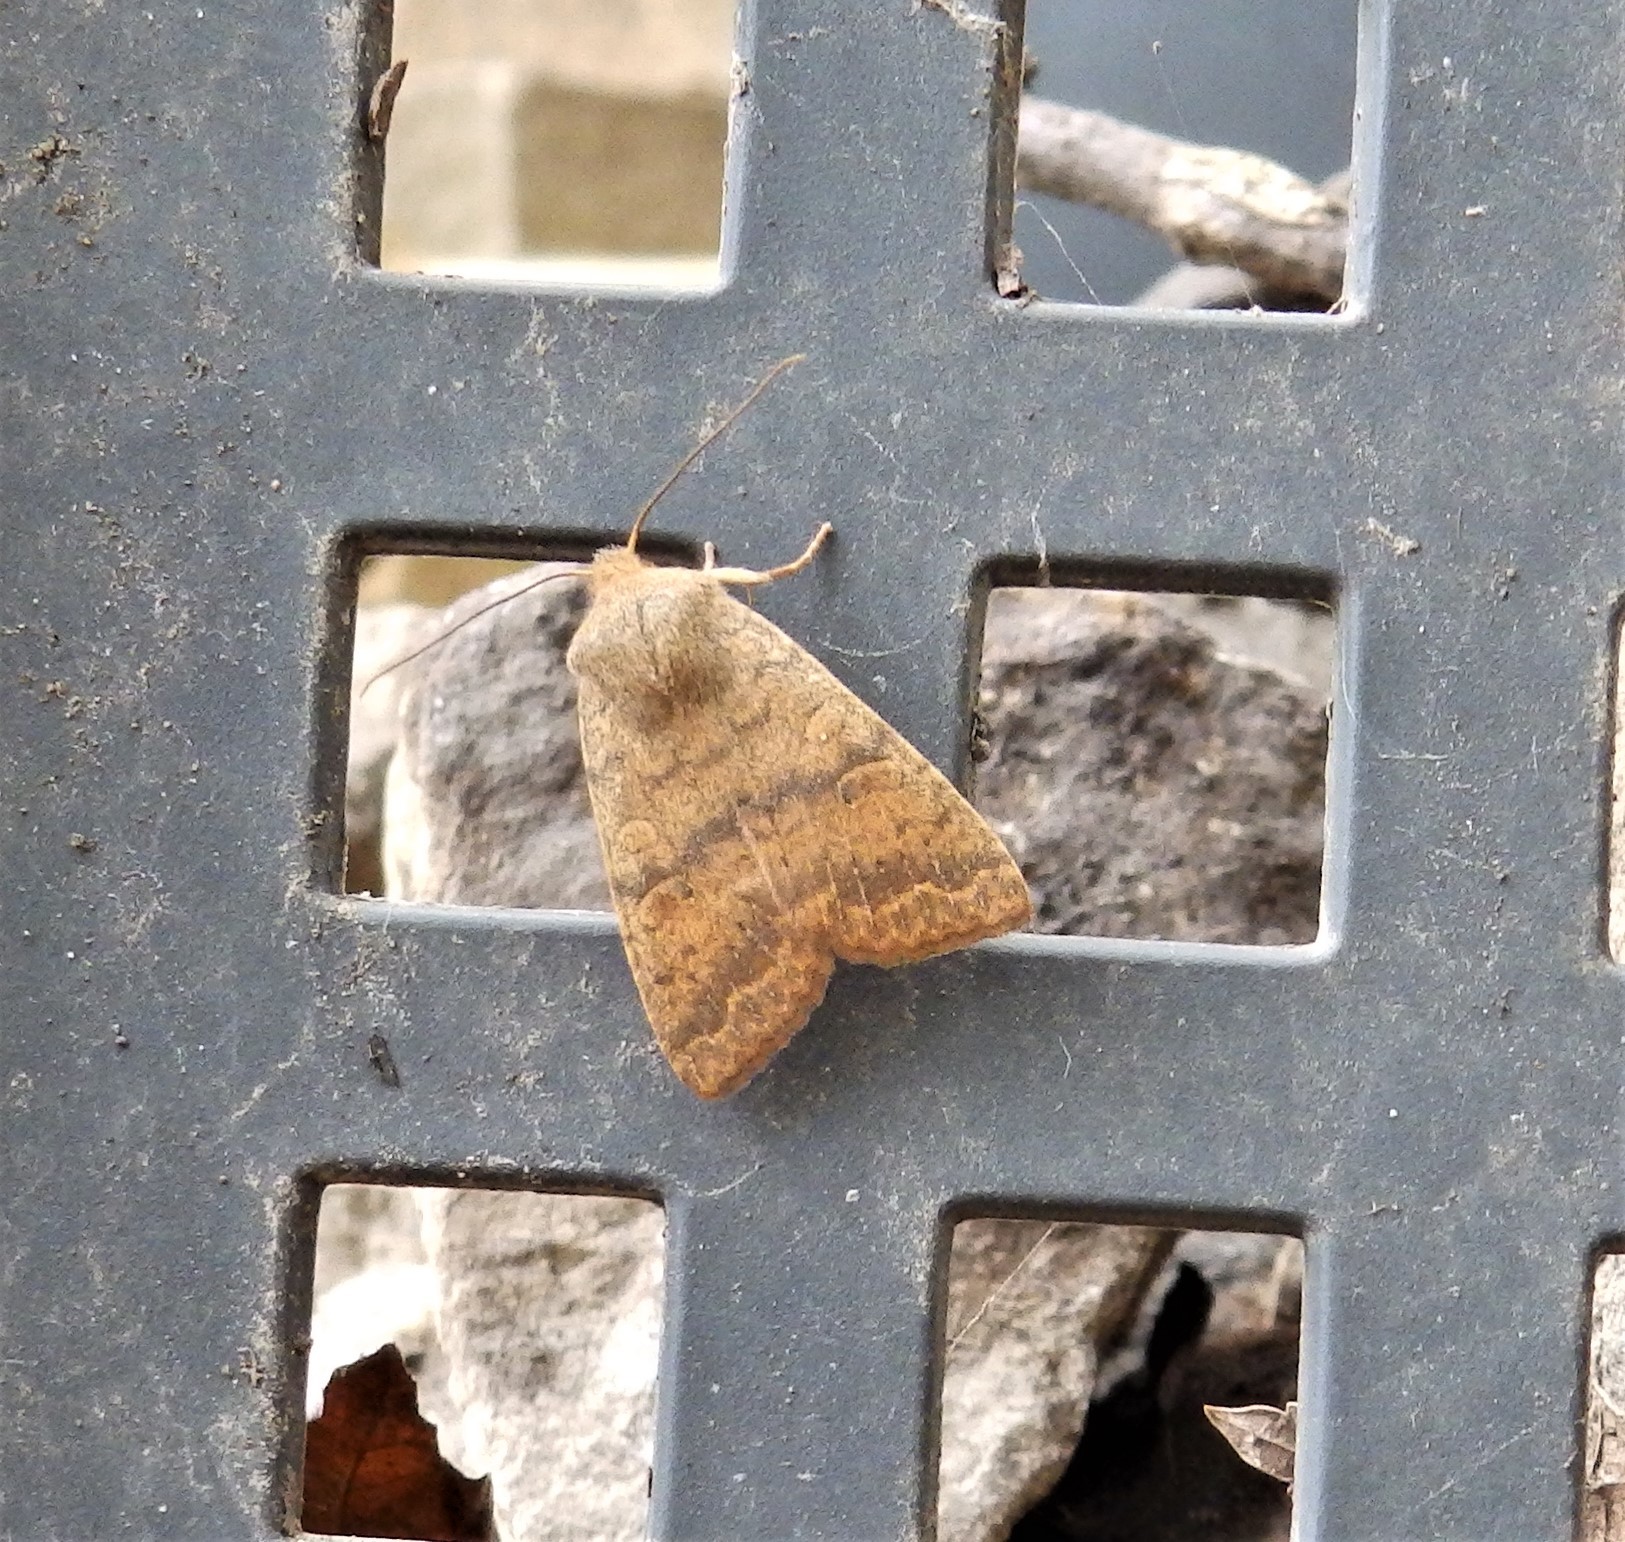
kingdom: Animalia
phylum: Arthropoda
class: Insecta
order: Lepidoptera
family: Noctuidae
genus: Agrochola
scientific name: Agrochola bicolorago
